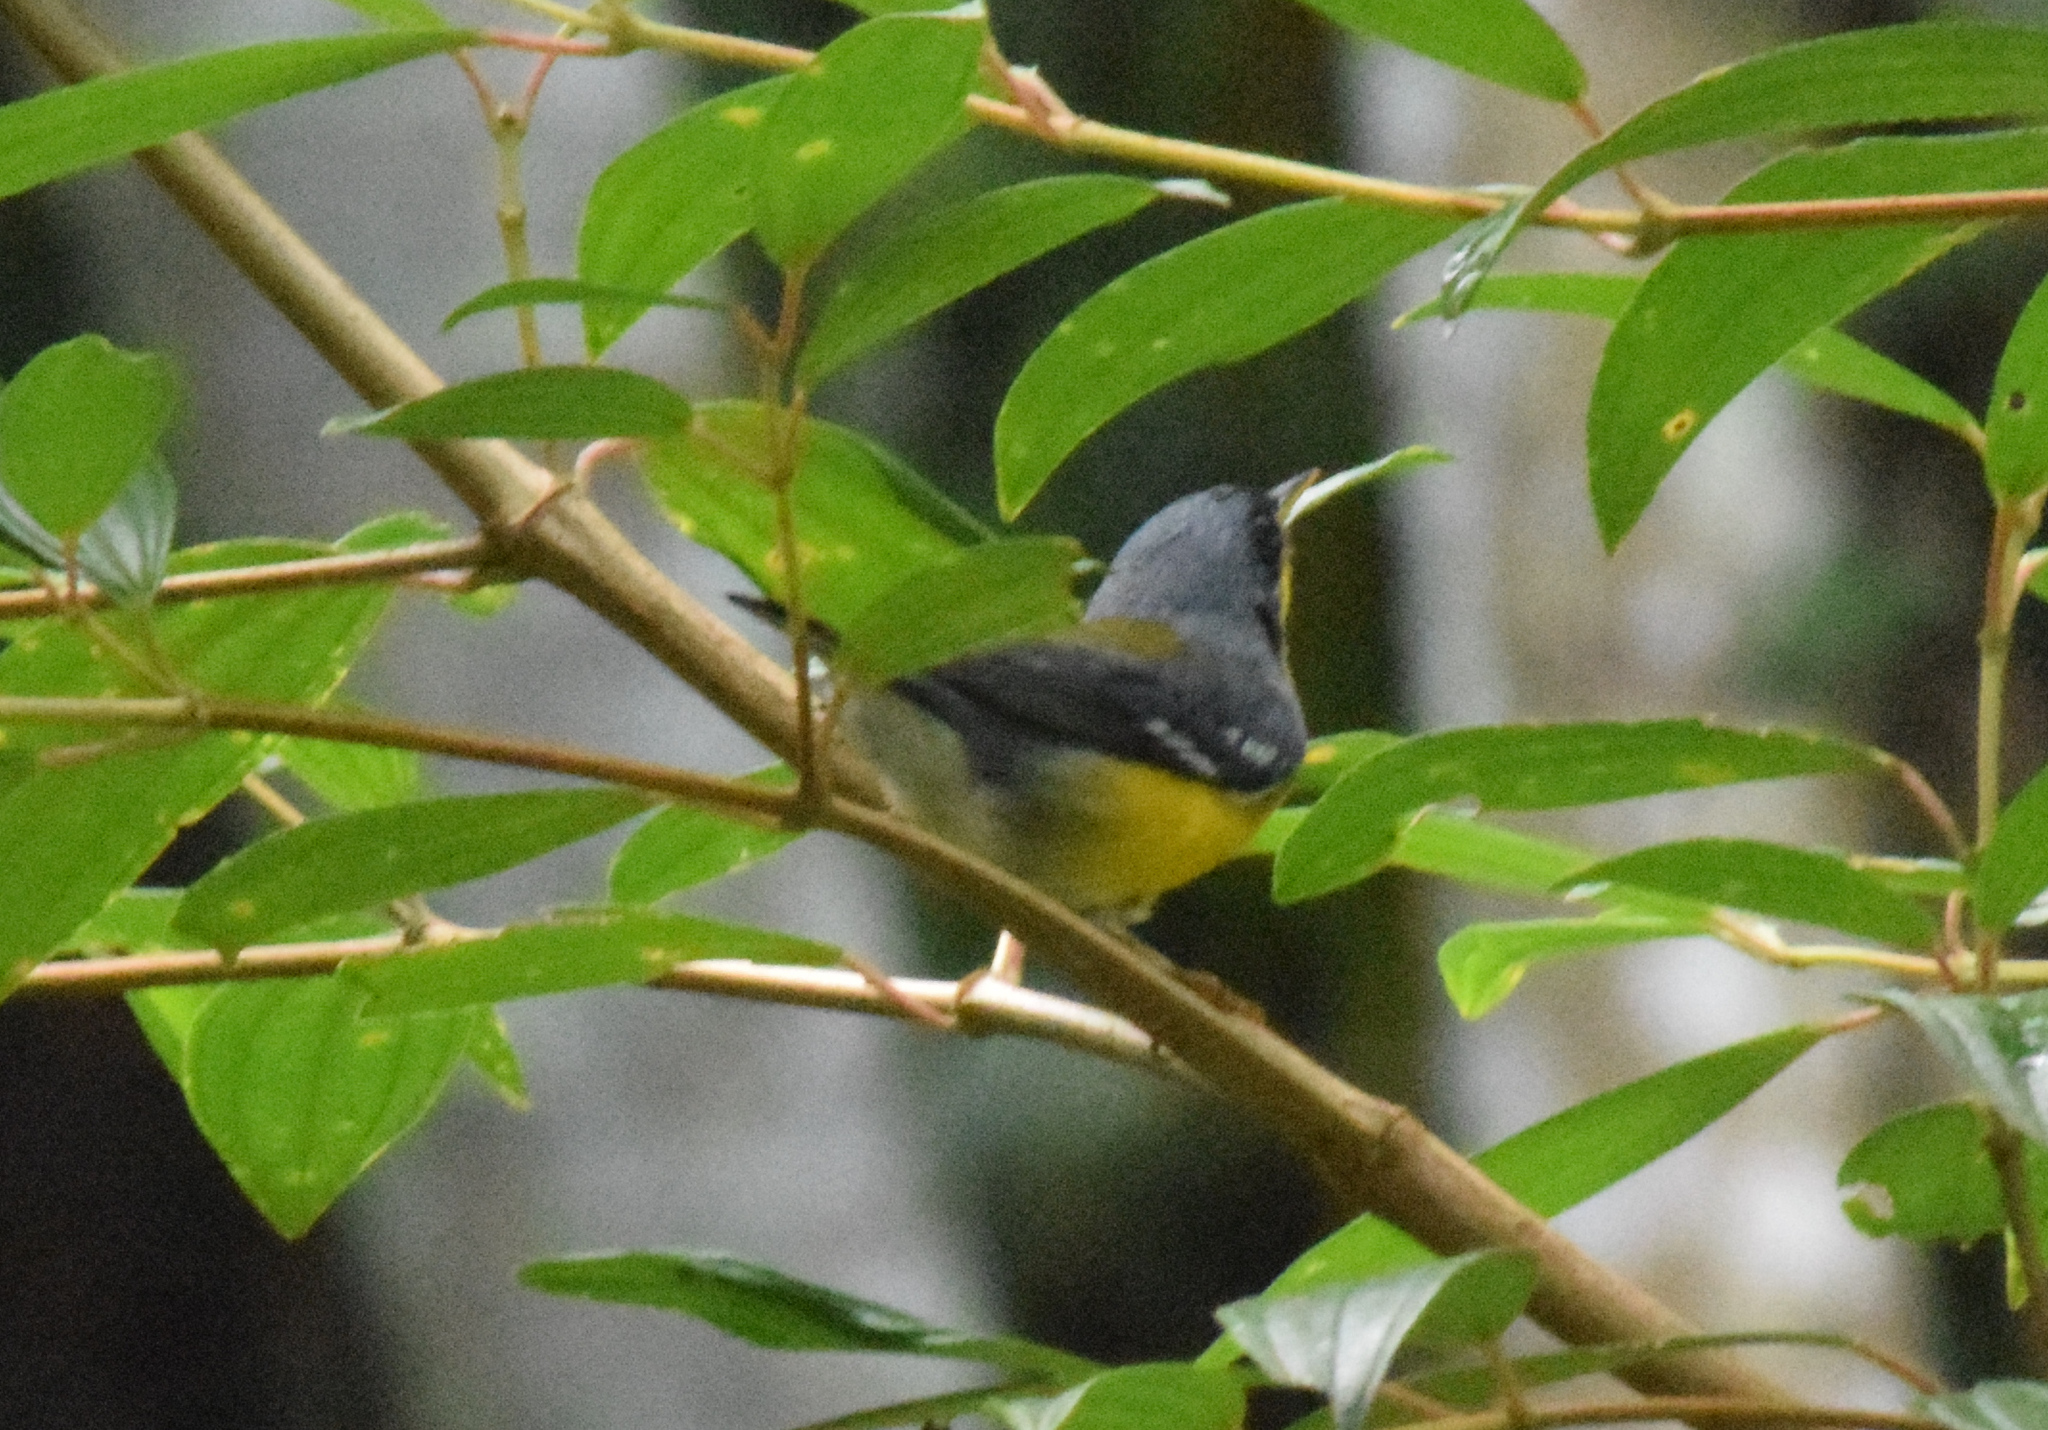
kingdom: Animalia
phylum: Chordata
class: Aves
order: Passeriformes
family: Parulidae
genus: Setophaga
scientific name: Setophaga pitiayumi
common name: Tropical parula
